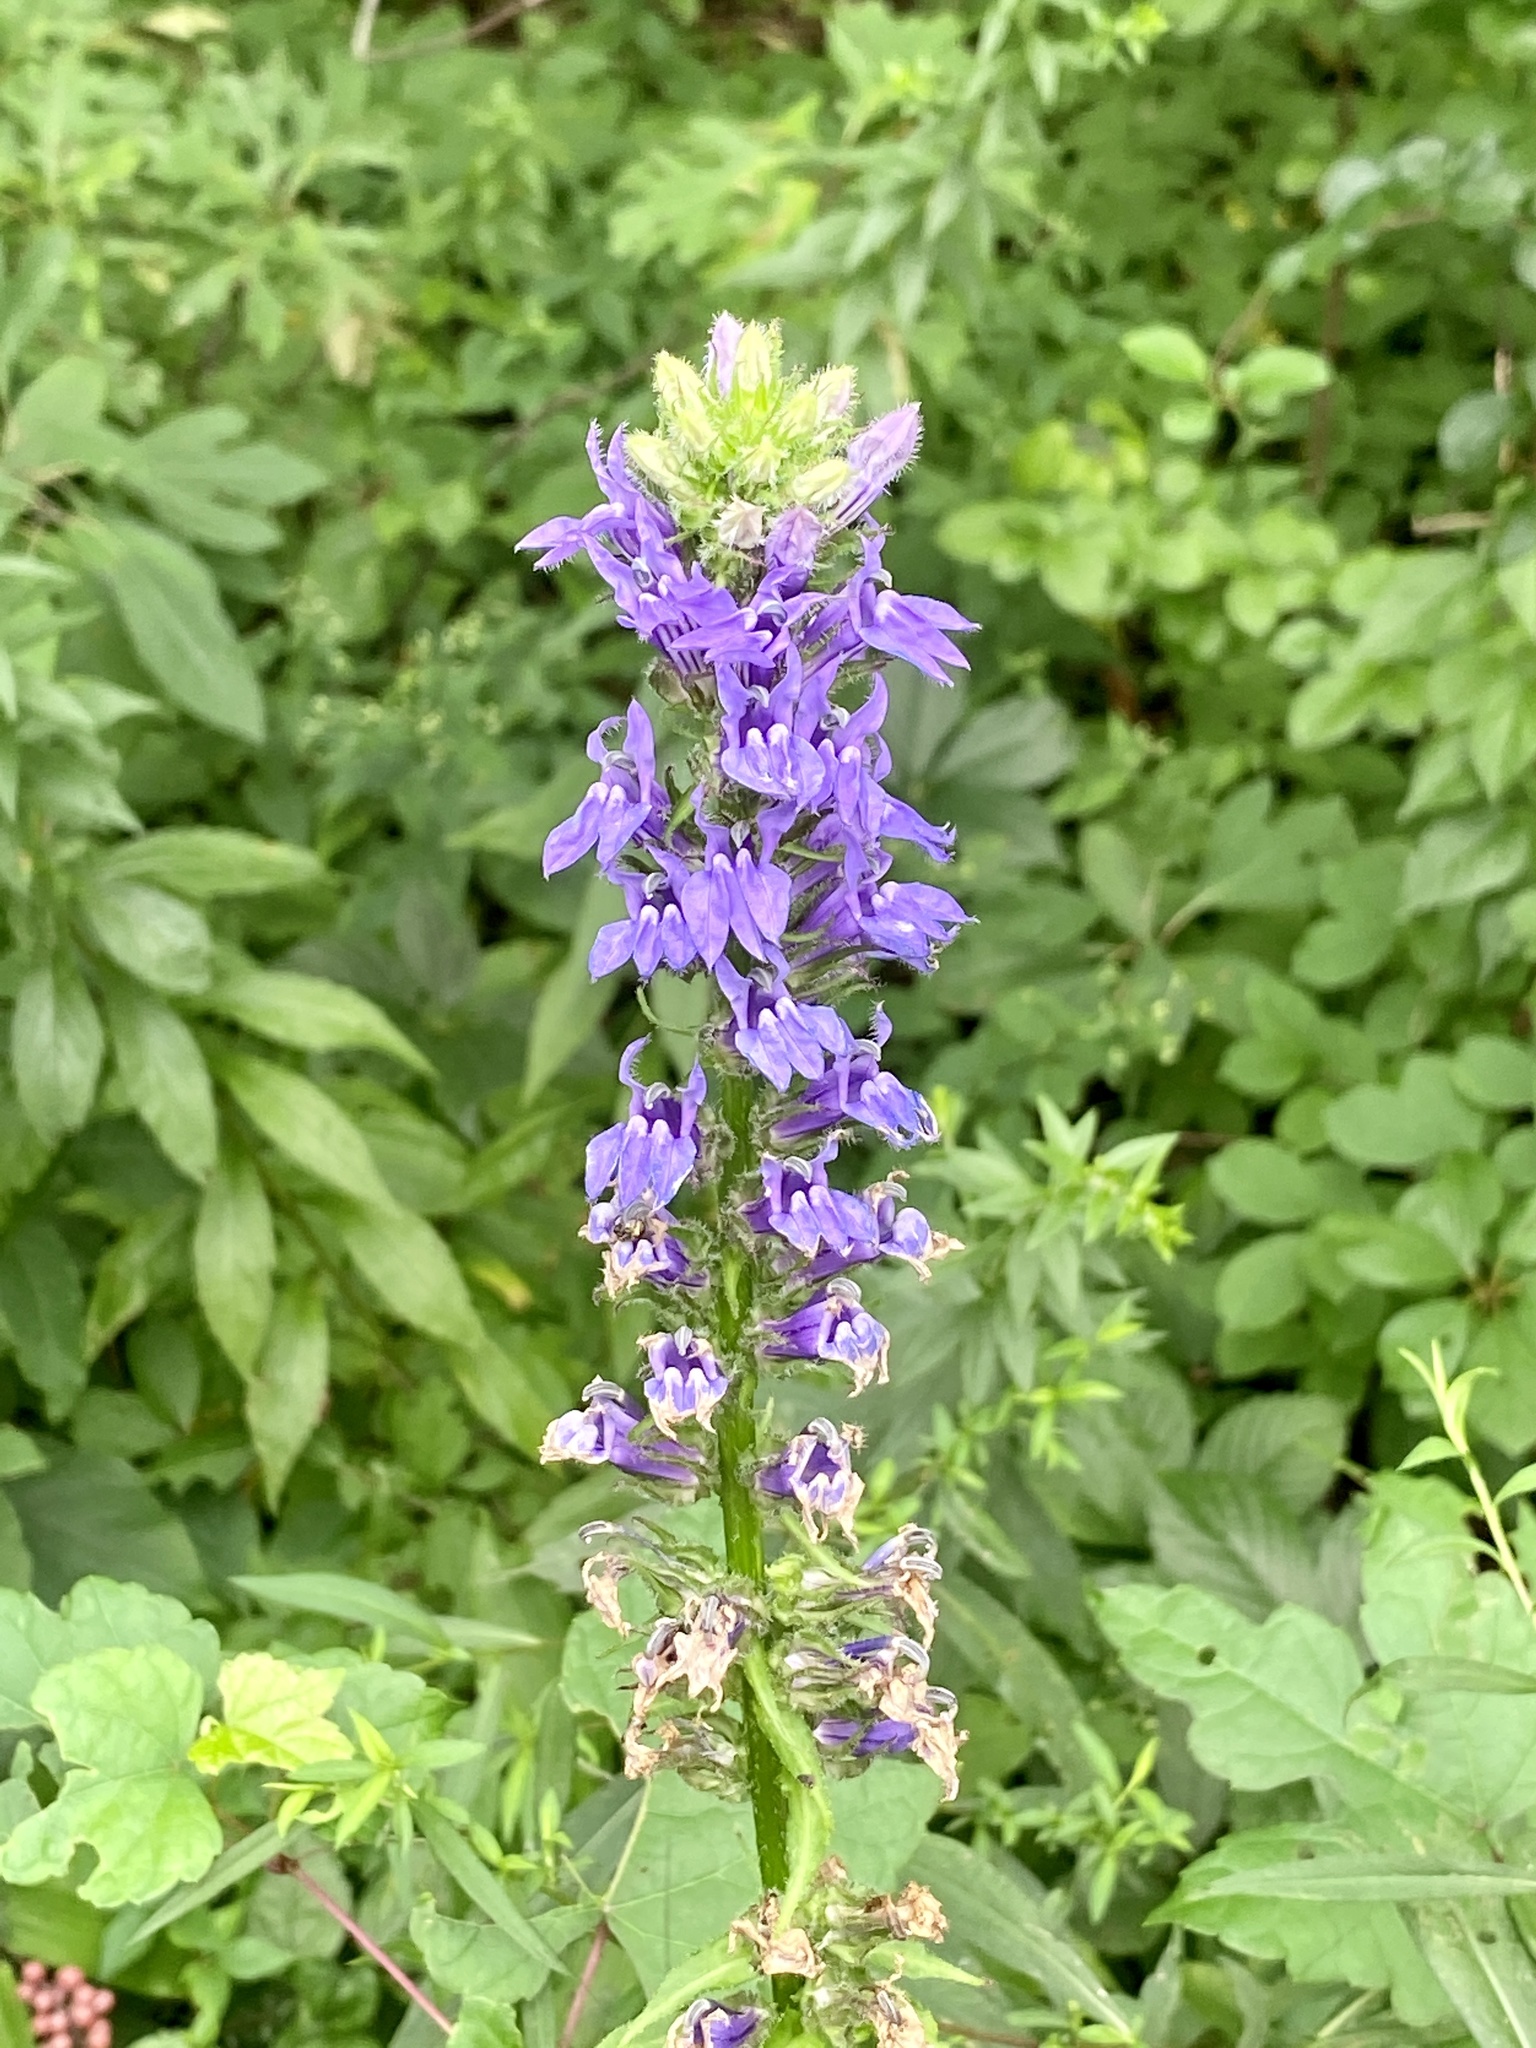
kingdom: Plantae
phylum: Tracheophyta
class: Magnoliopsida
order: Asterales
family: Campanulaceae
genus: Lobelia
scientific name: Lobelia siphilitica
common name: Great lobelia
